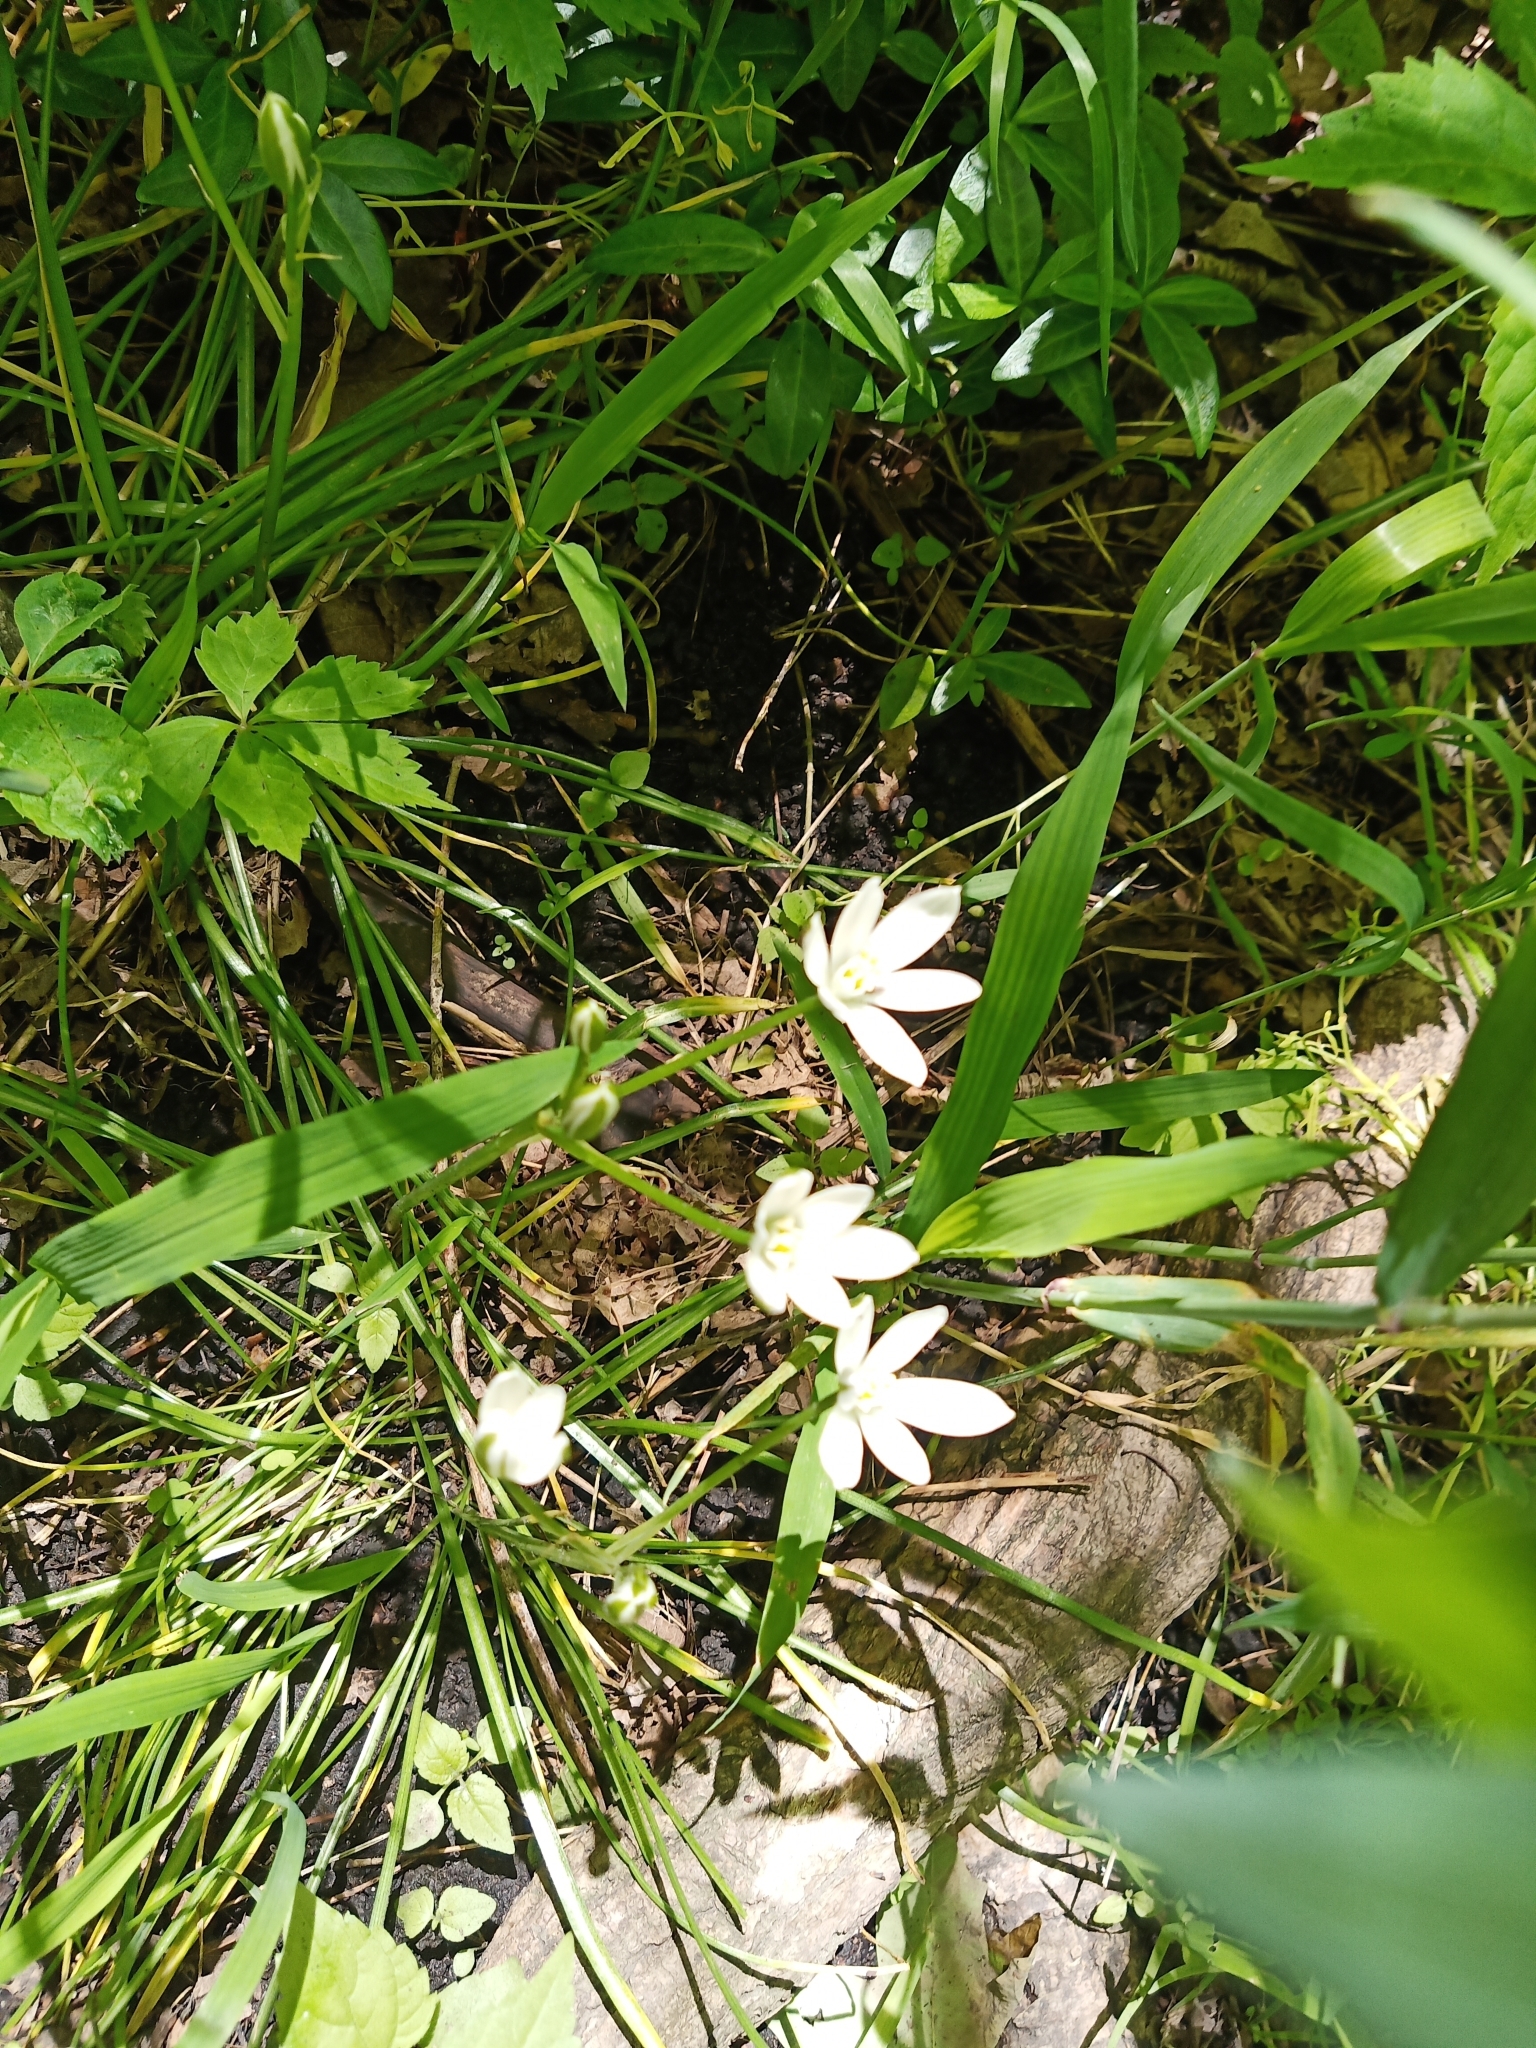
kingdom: Plantae
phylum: Tracheophyta
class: Liliopsida
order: Asparagales
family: Asparagaceae
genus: Ornithogalum
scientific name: Ornithogalum umbellatum
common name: Garden star-of-bethlehem
